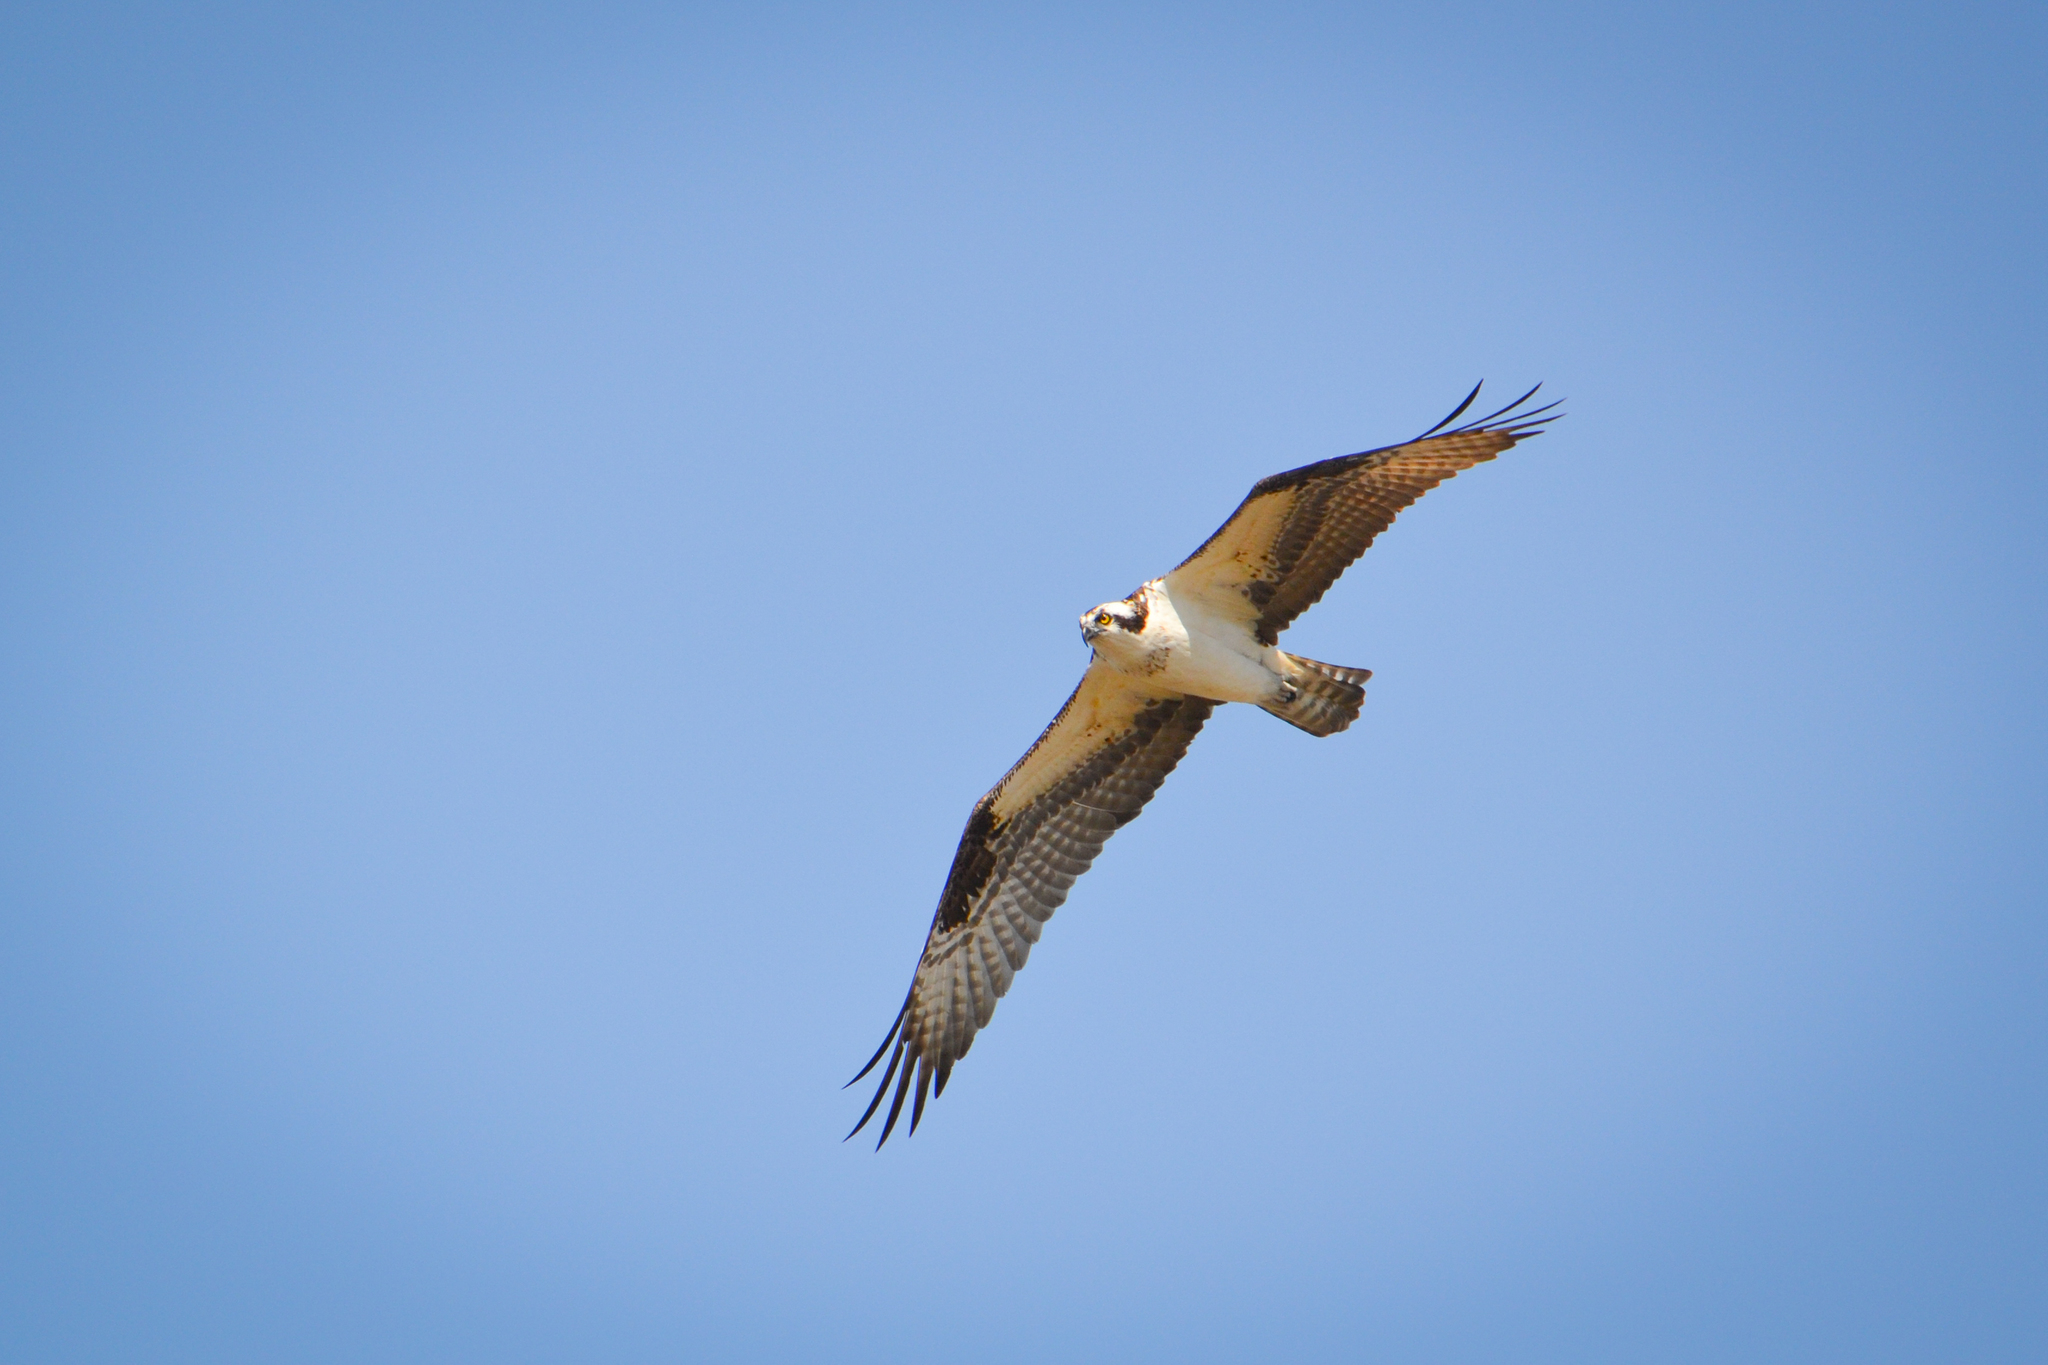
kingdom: Animalia
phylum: Chordata
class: Aves
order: Accipitriformes
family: Pandionidae
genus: Pandion
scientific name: Pandion haliaetus
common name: Osprey
